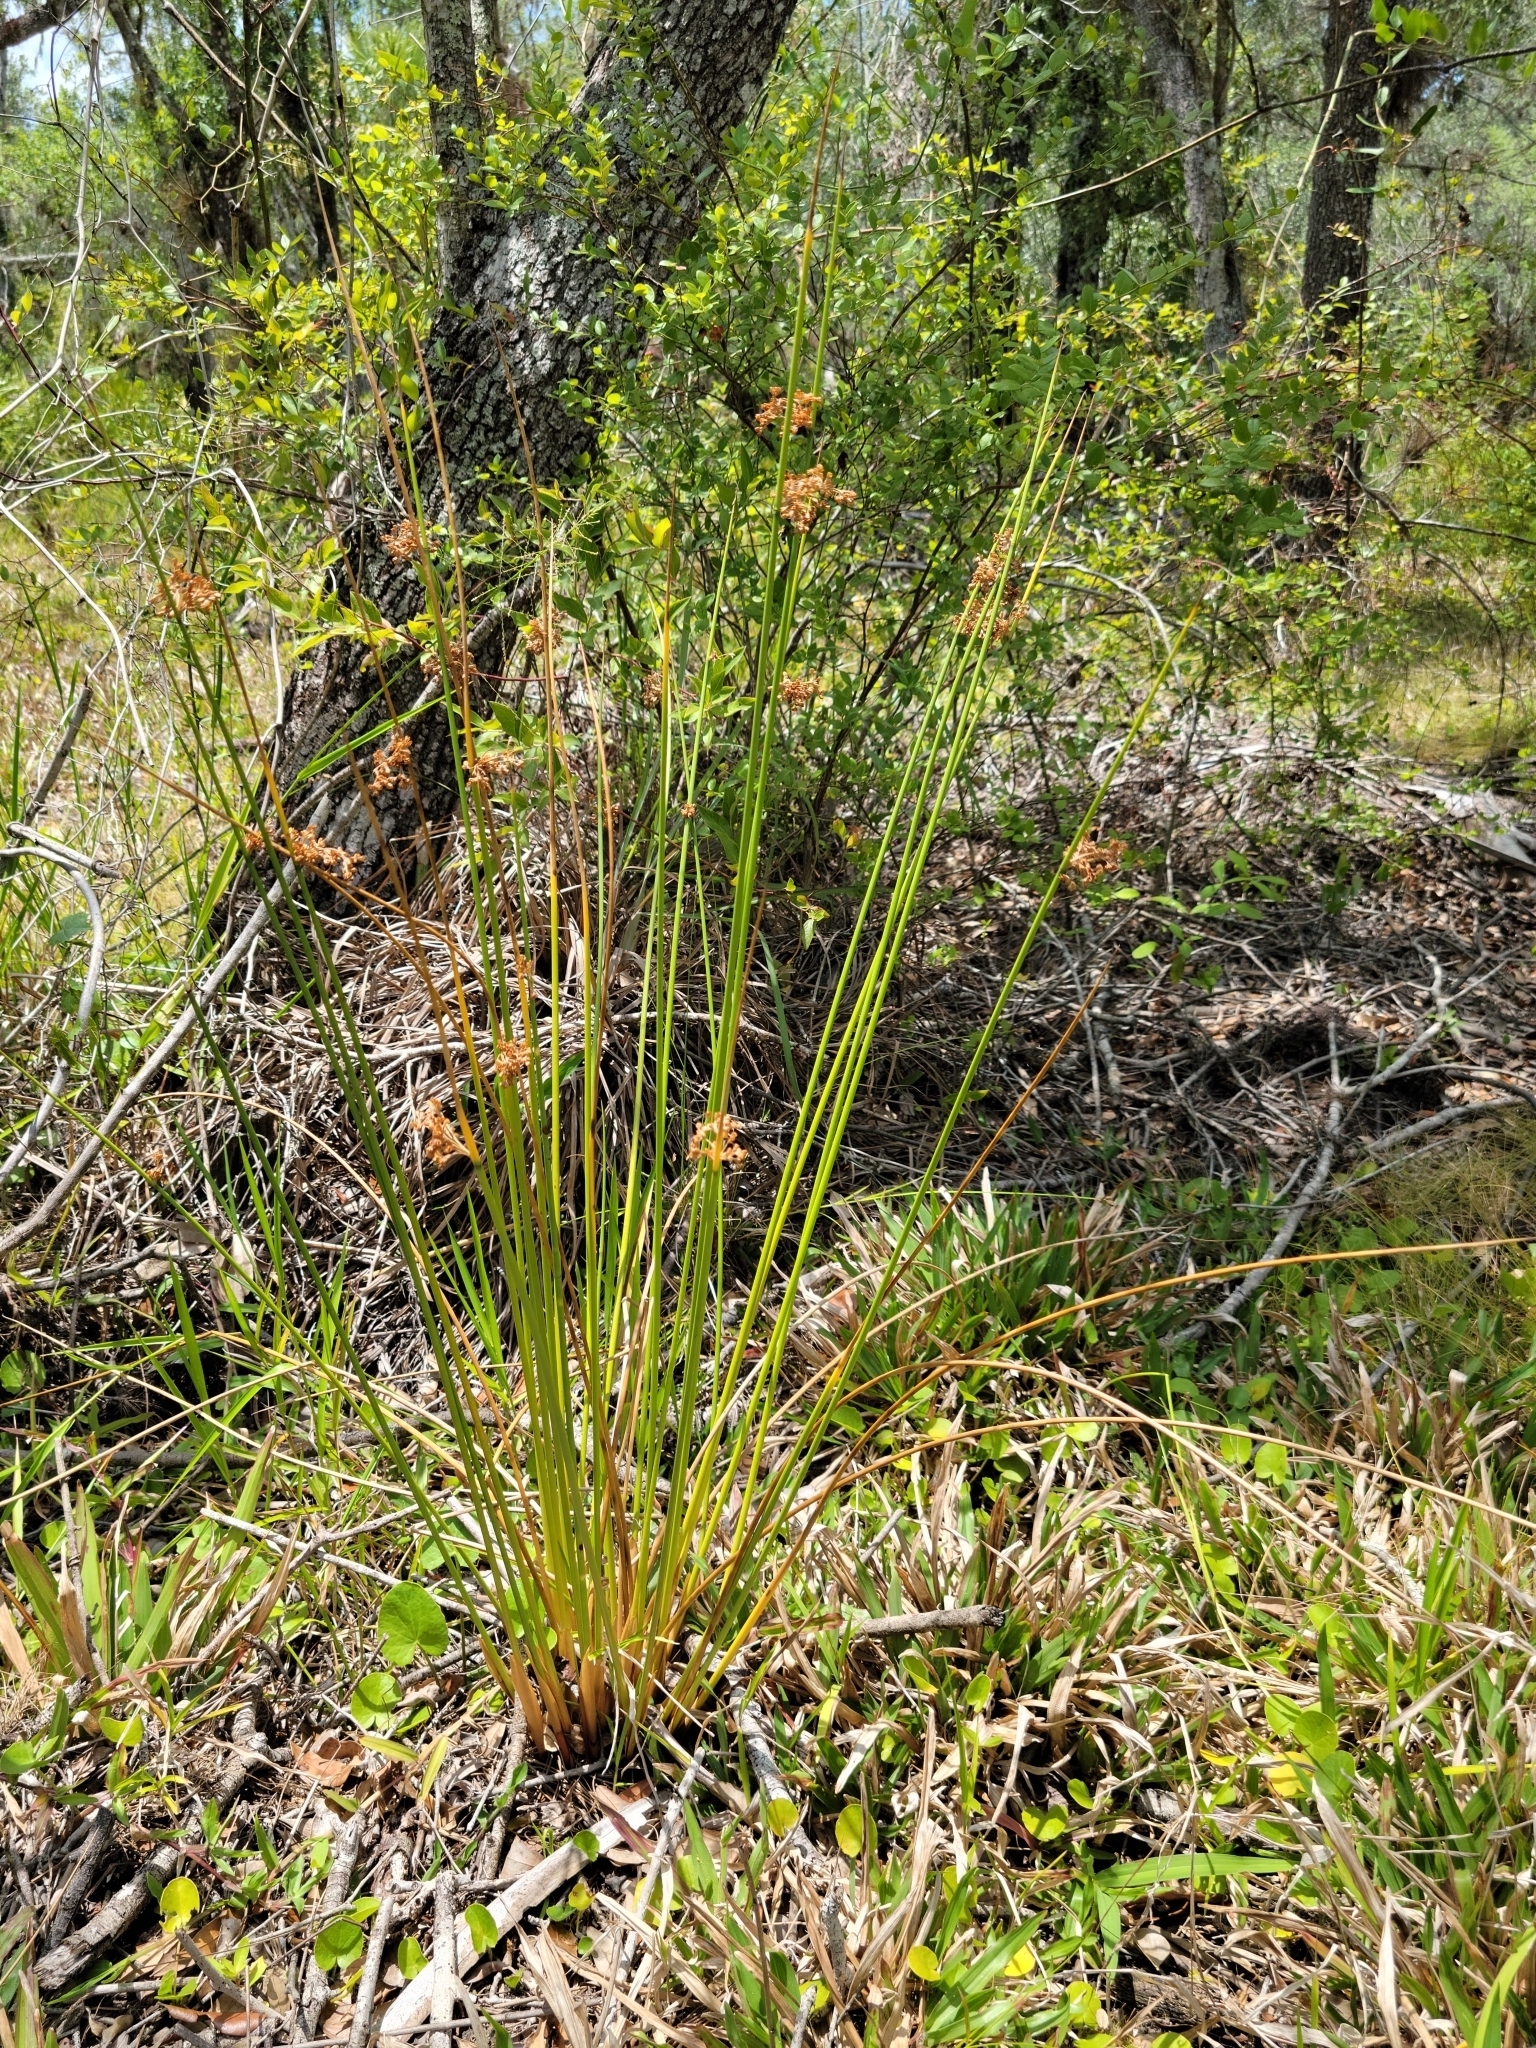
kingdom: Plantae
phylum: Tracheophyta
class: Liliopsida
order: Poales
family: Juncaceae
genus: Juncus
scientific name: Juncus effusus
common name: Soft rush
